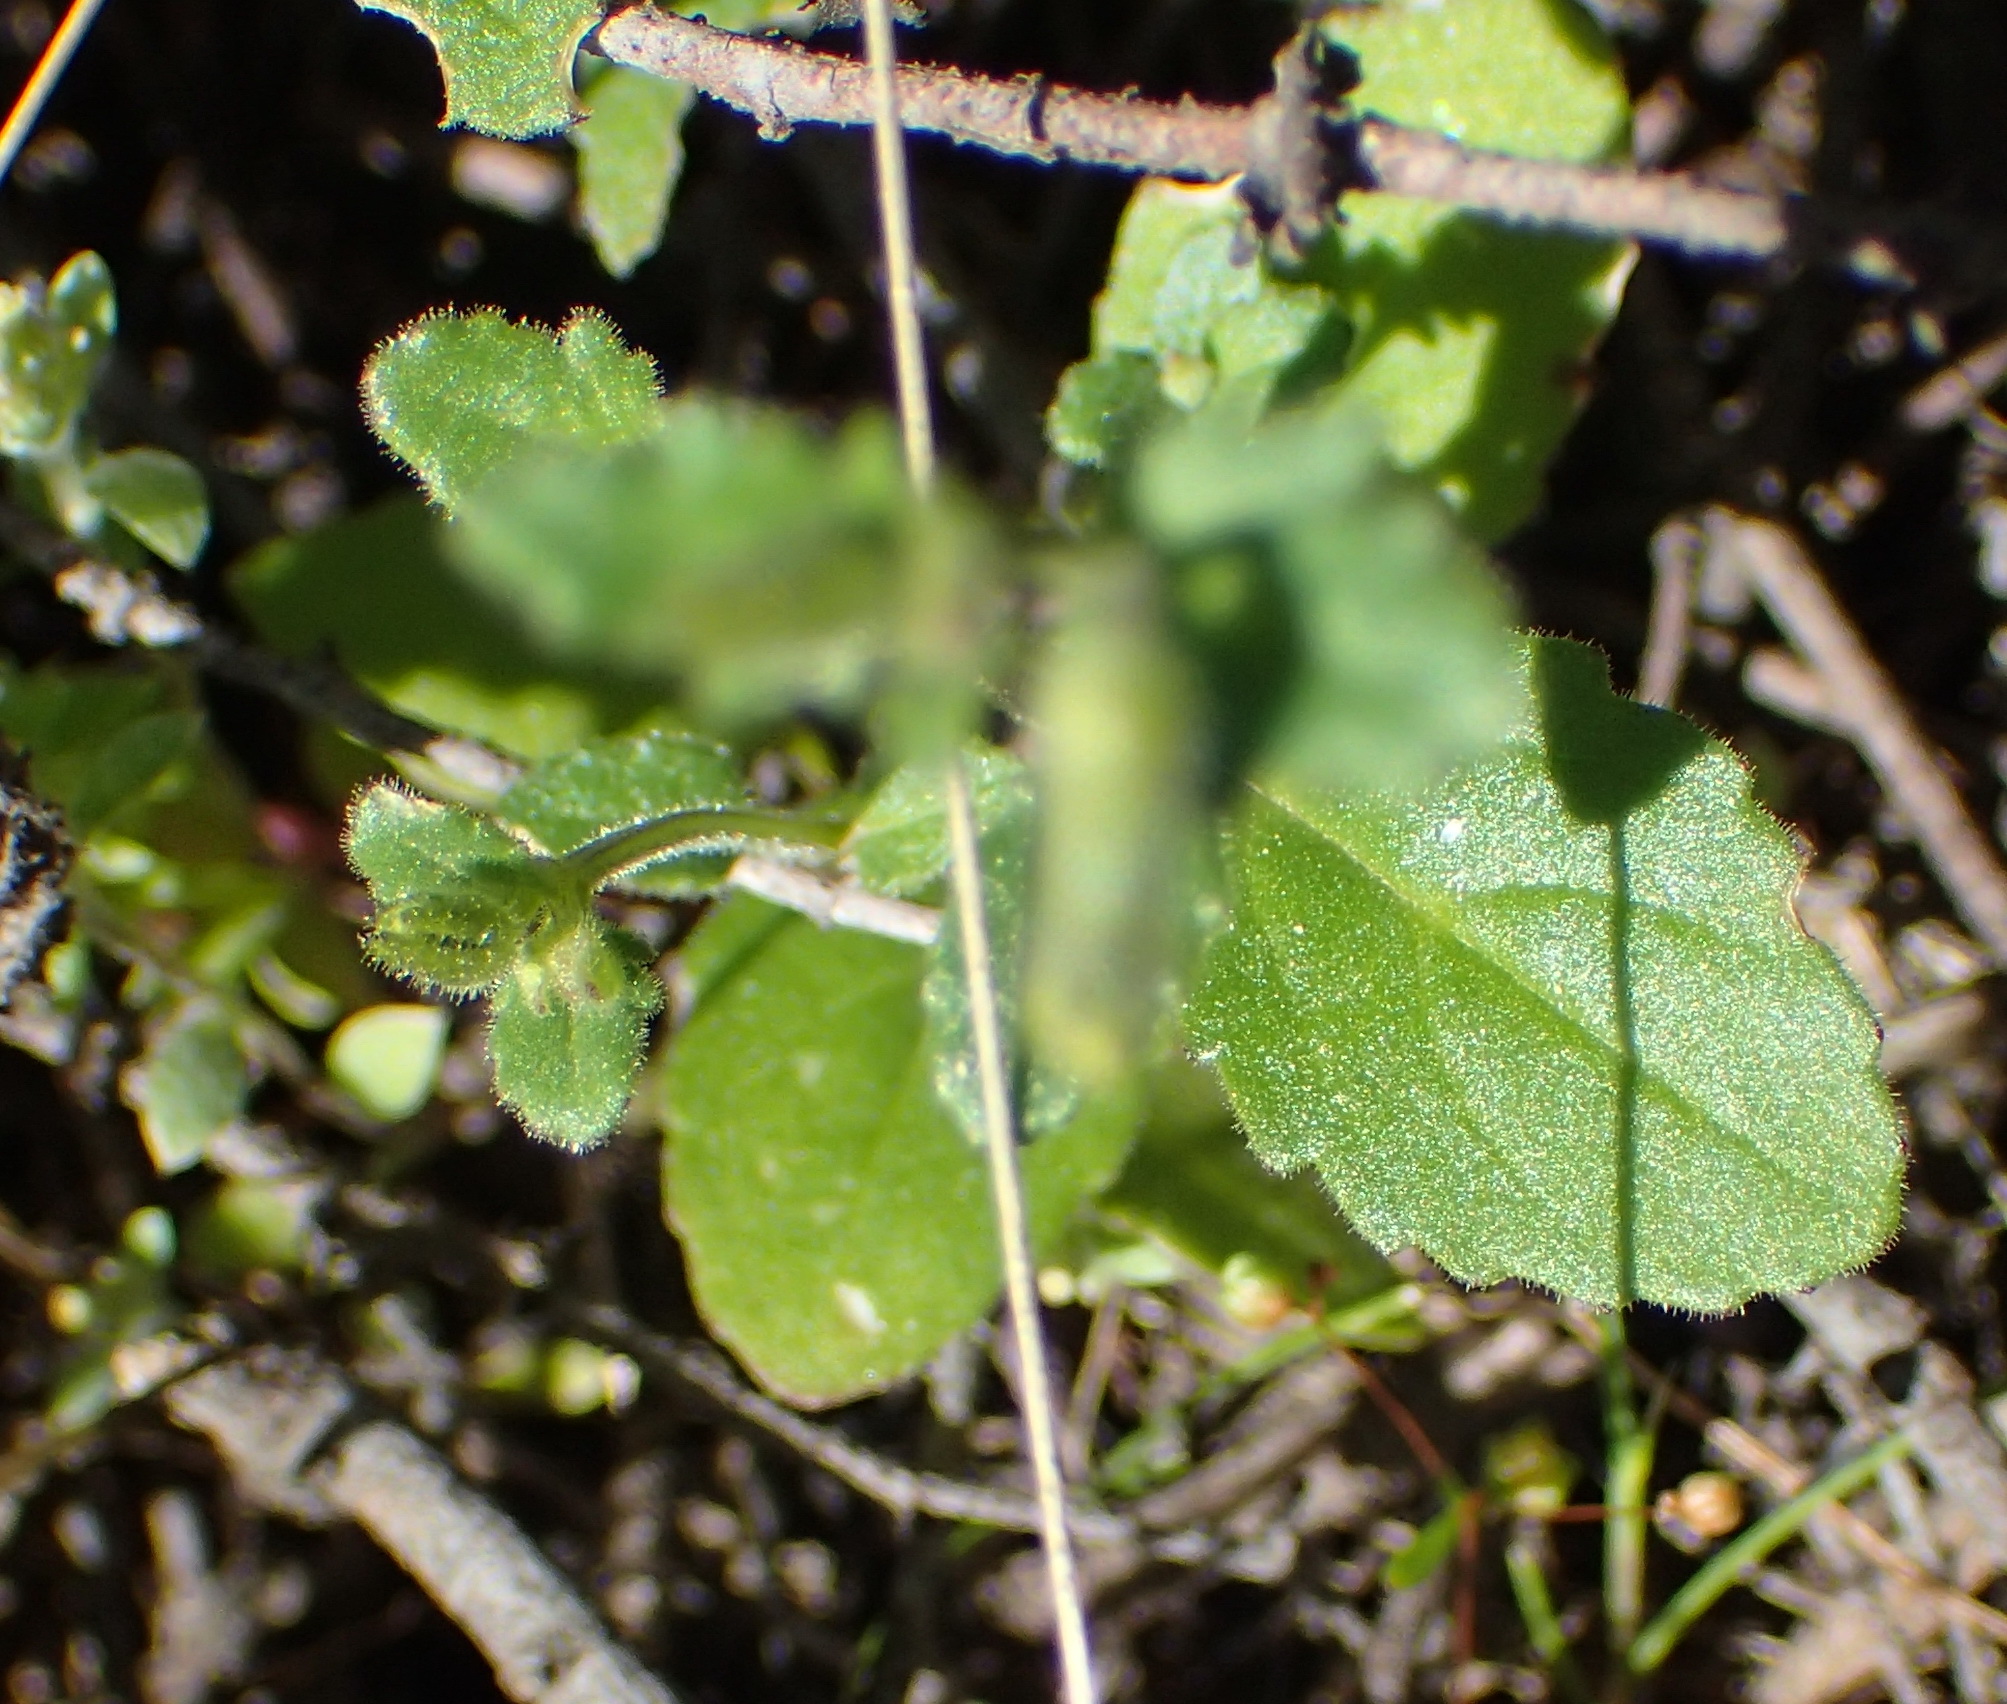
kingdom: Plantae
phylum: Tracheophyta
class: Magnoliopsida
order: Lamiales
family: Scrophulariaceae
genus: Lyperia
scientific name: Lyperia formosa
